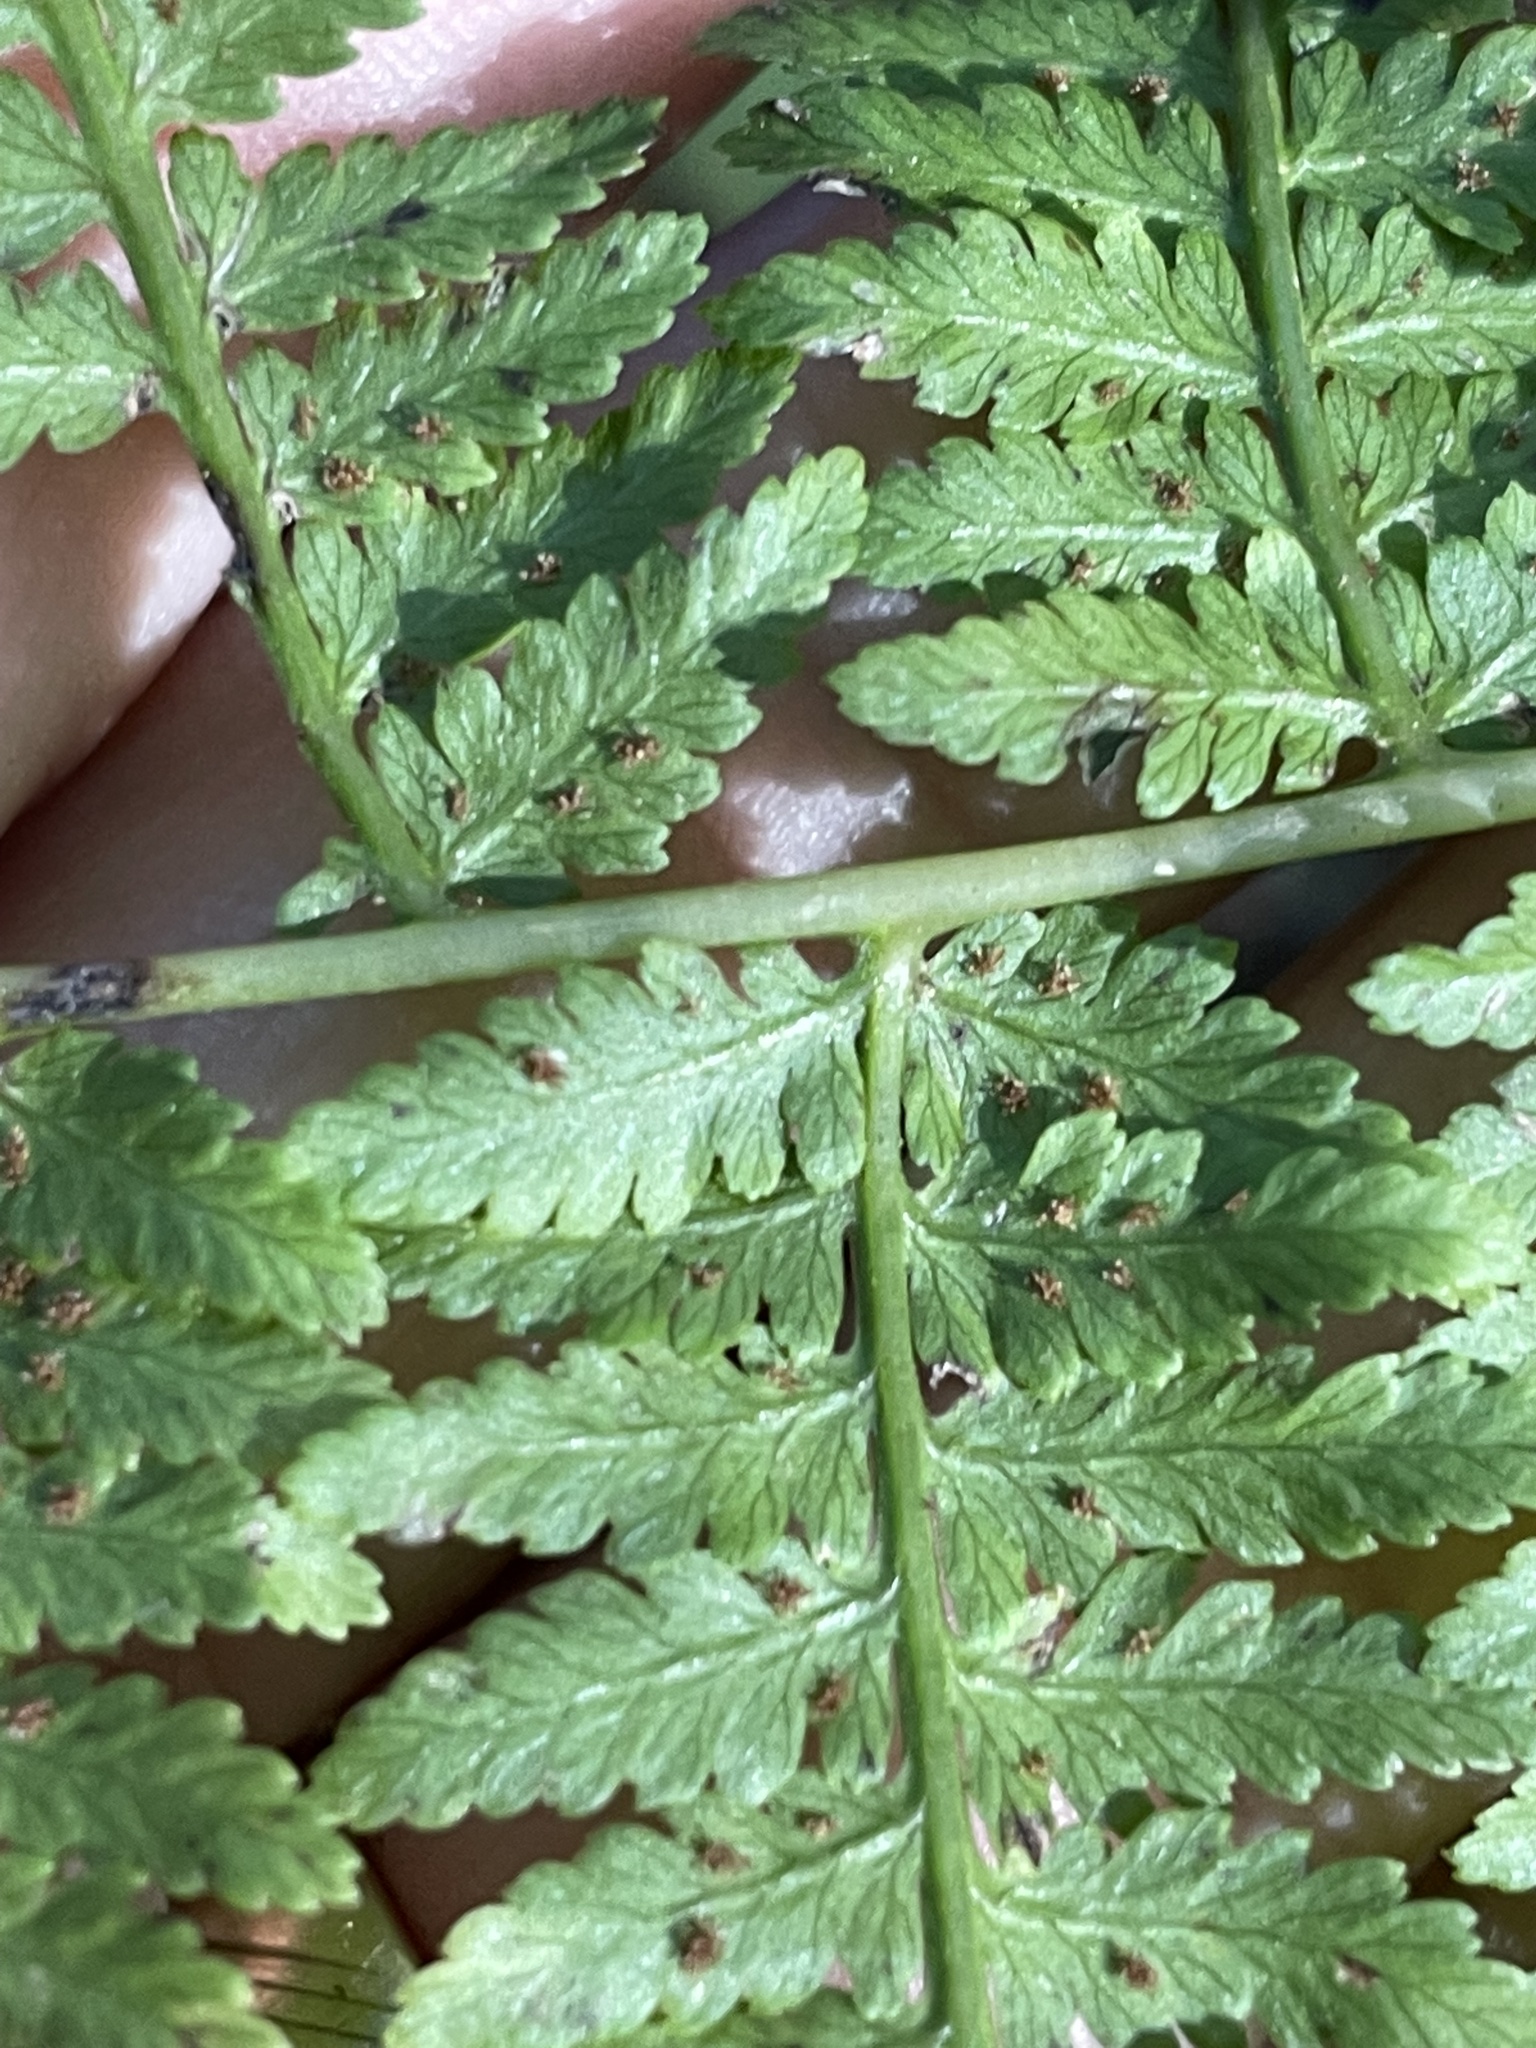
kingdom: Plantae
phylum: Tracheophyta
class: Polypodiopsida
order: Polypodiales
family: Athyriaceae
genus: Athyrium
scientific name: Athyrium asplenioides
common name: Southern lady fern
